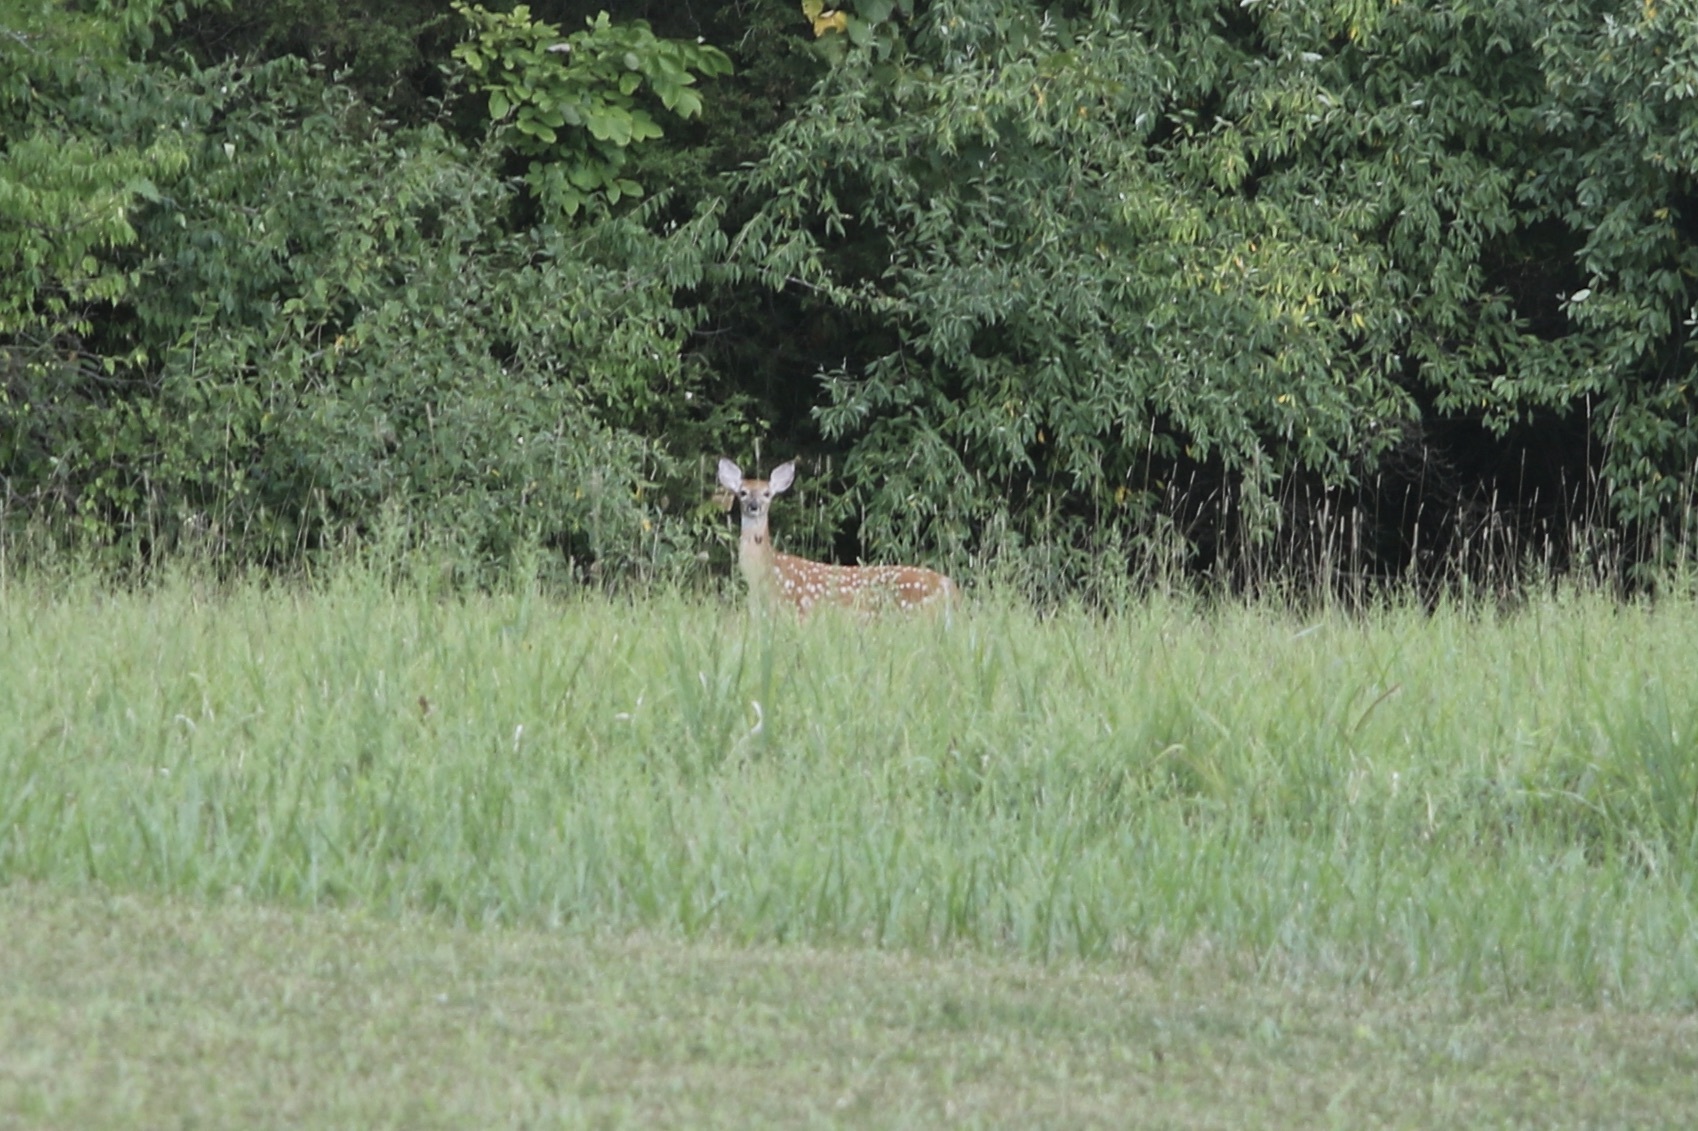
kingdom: Animalia
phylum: Chordata
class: Mammalia
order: Artiodactyla
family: Cervidae
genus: Odocoileus
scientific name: Odocoileus virginianus
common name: White-tailed deer
